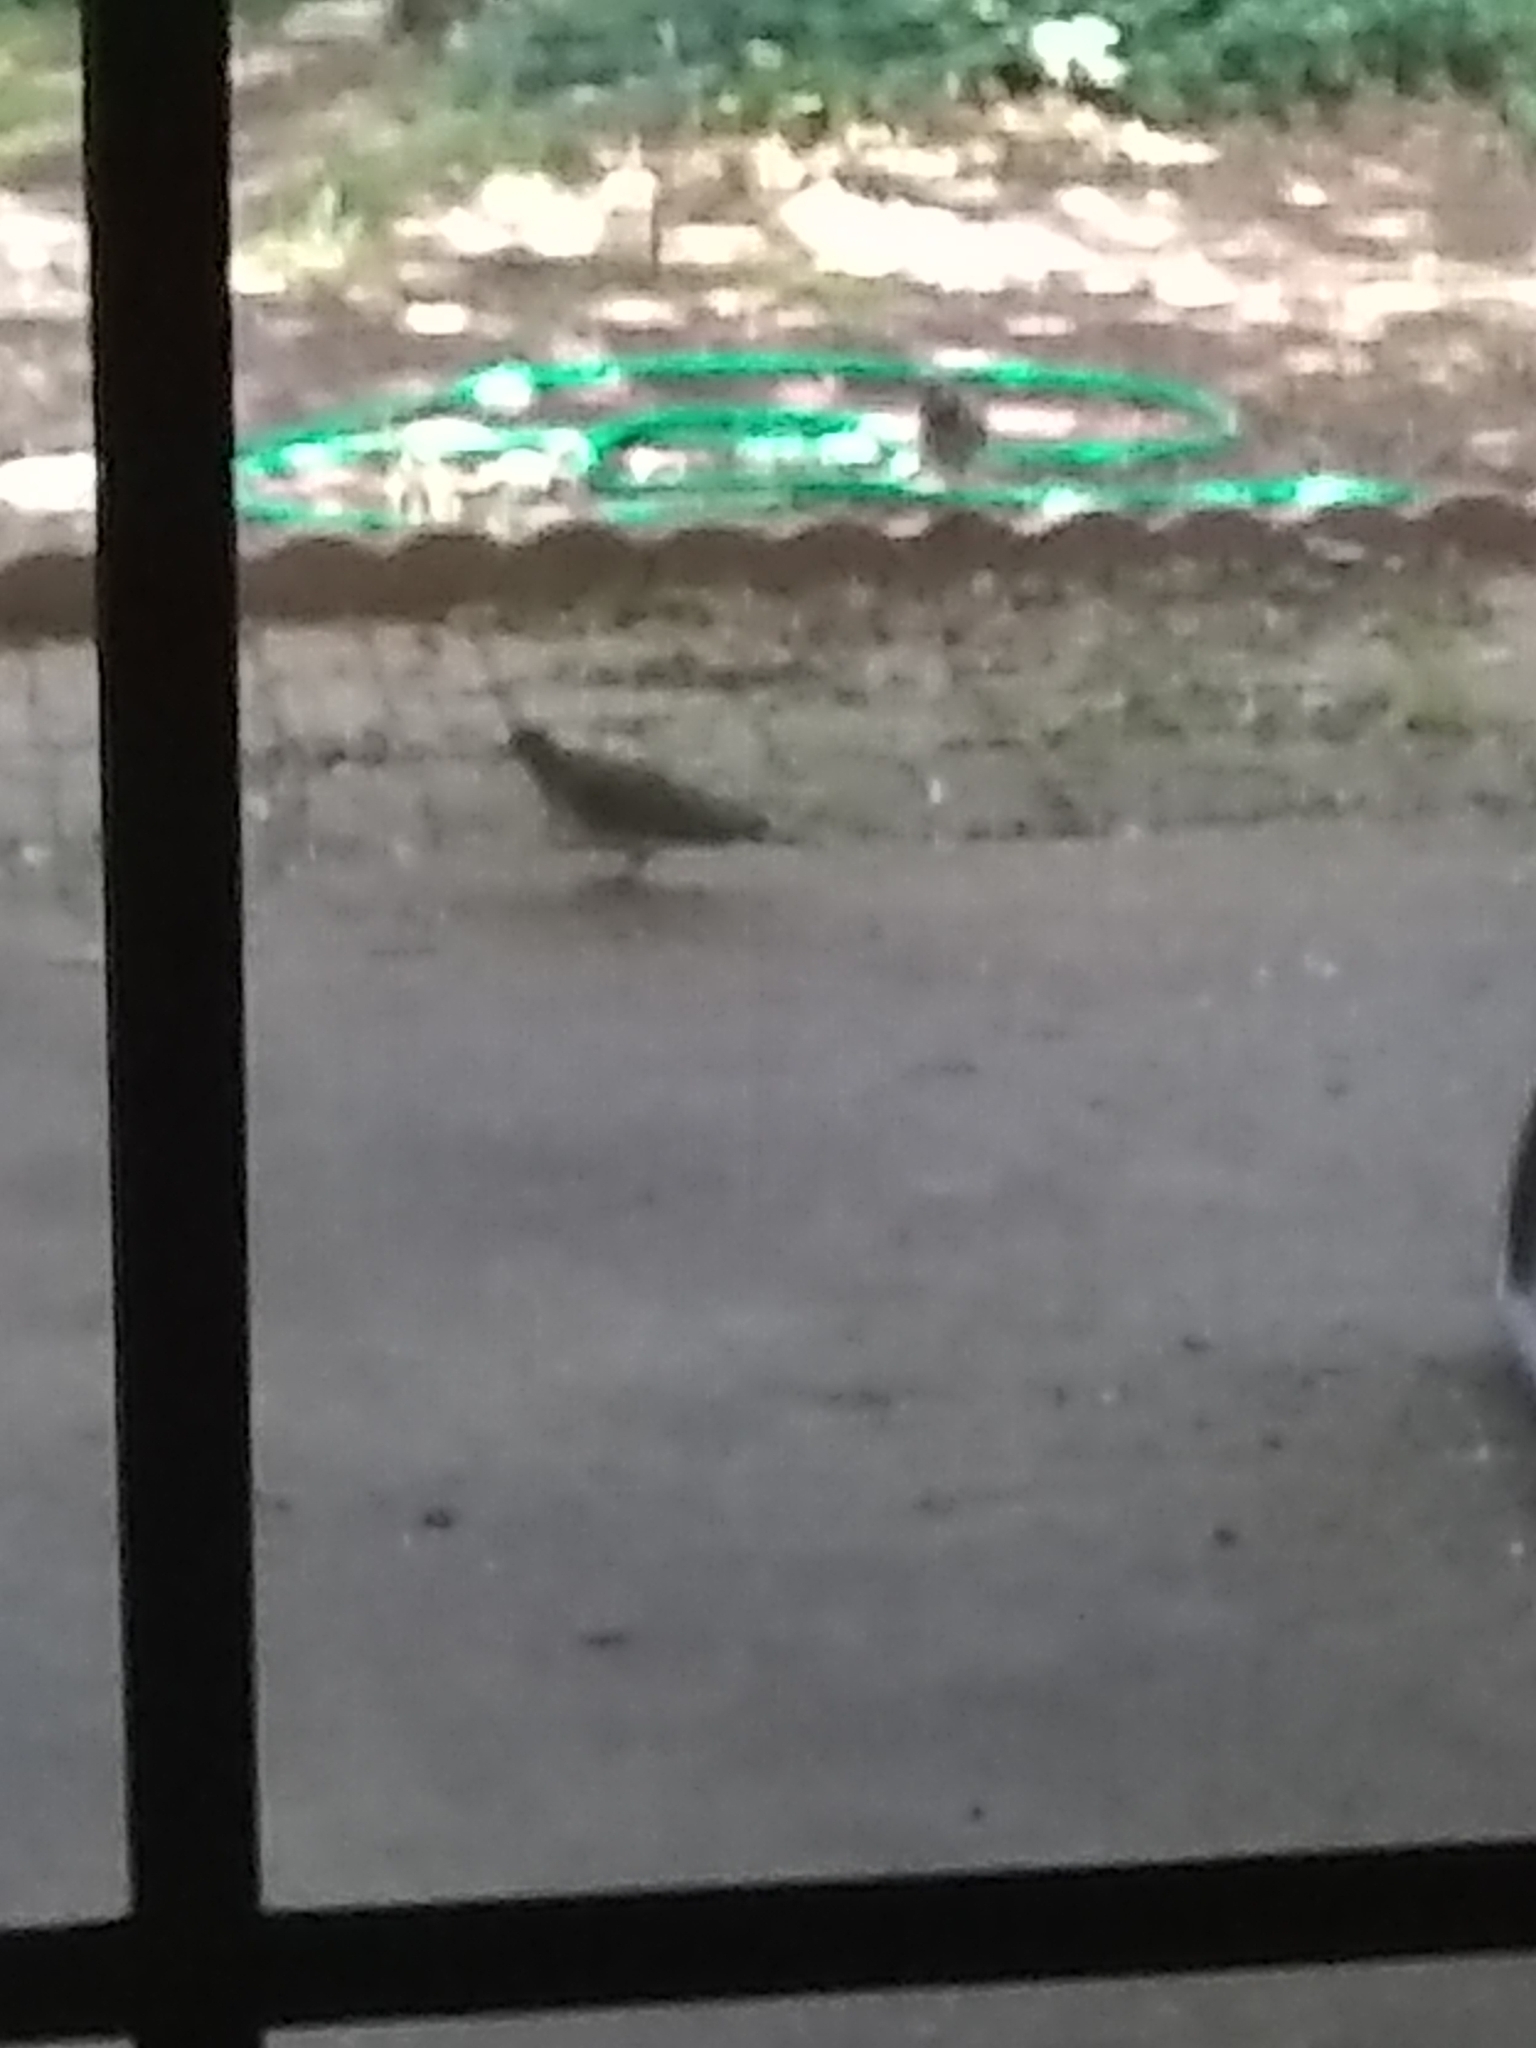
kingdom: Animalia
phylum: Chordata
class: Aves
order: Columbiformes
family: Columbidae
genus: Zenaida
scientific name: Zenaida asiatica
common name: White-winged dove
